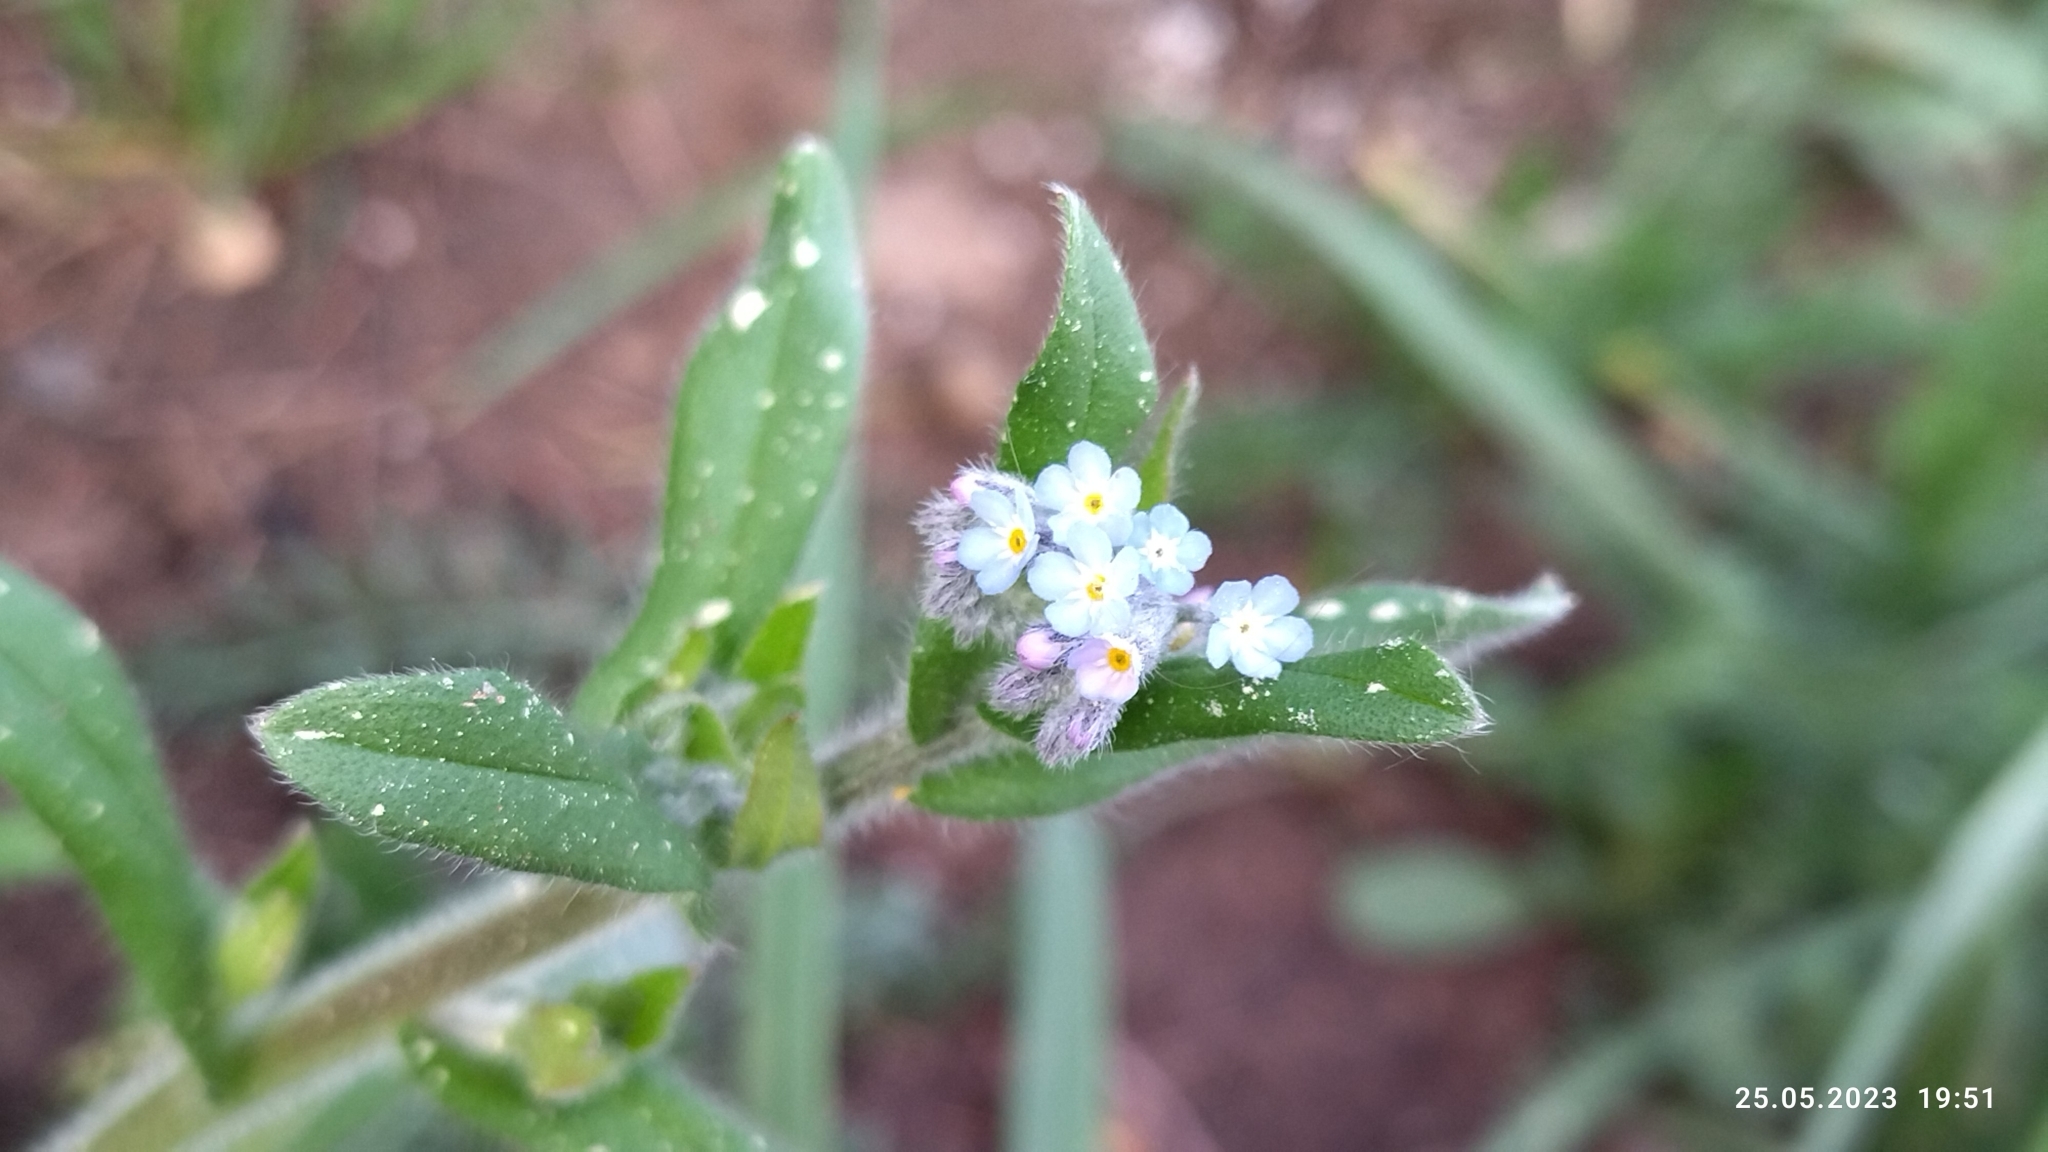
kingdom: Plantae
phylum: Tracheophyta
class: Magnoliopsida
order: Boraginales
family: Boraginaceae
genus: Myosotis
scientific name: Myosotis arvensis
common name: Field forget-me-not
